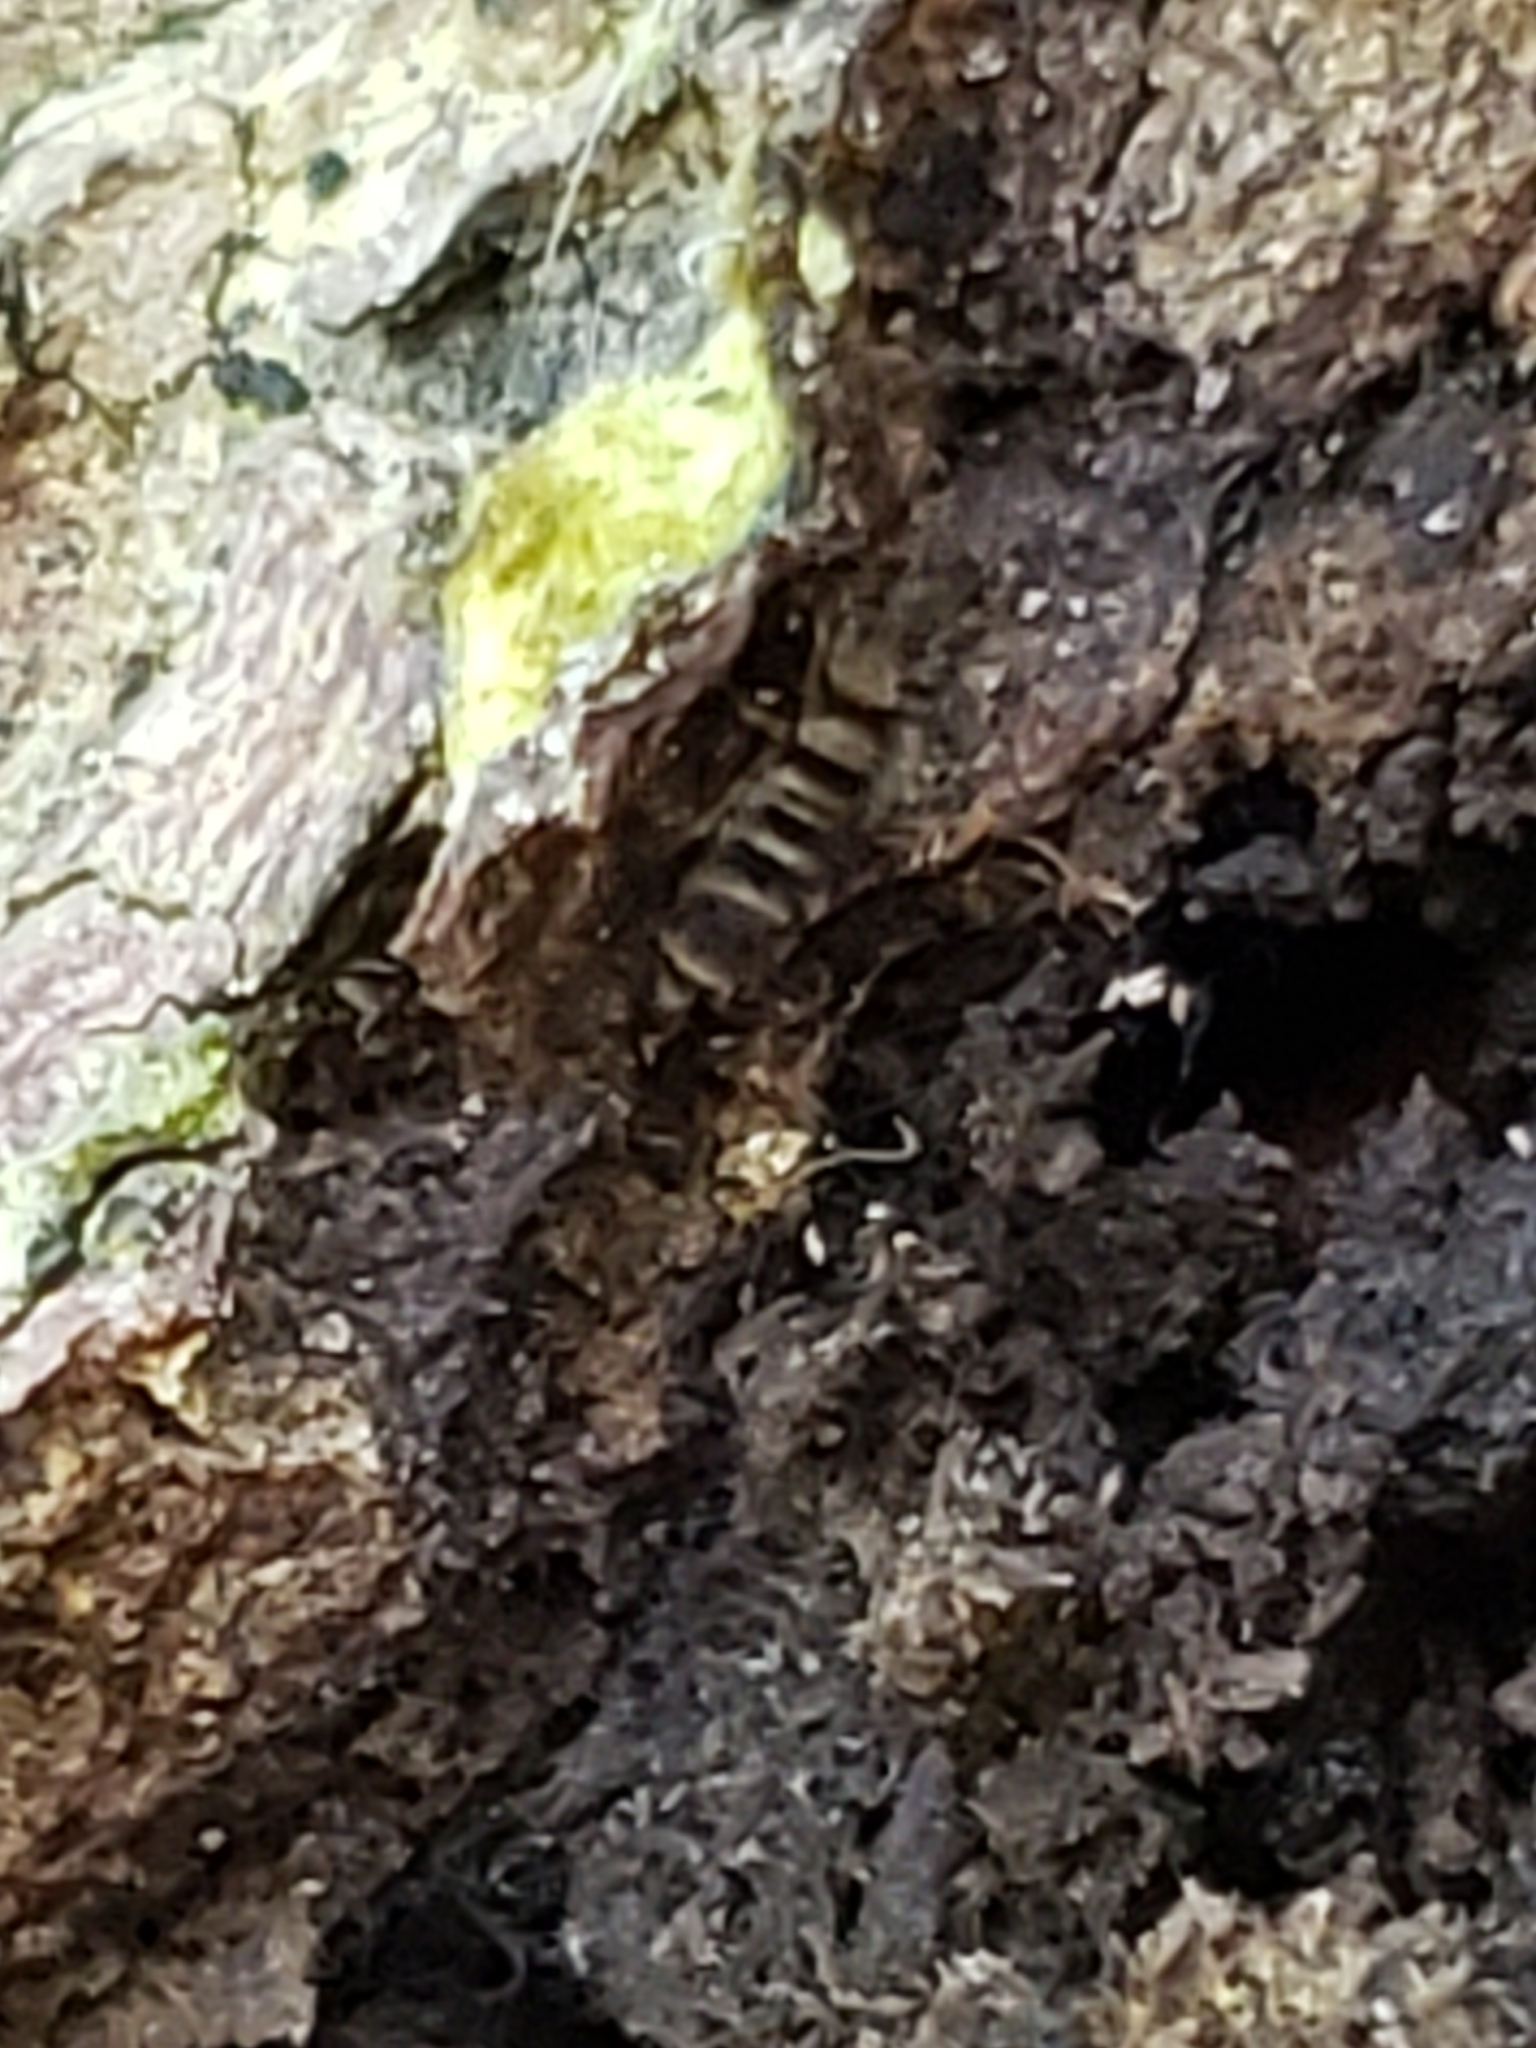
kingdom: Animalia
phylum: Arthropoda
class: Collembola
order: Entomobryomorpha
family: Orchesellidae
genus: Orchesella
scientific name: Orchesella hexfasciata
